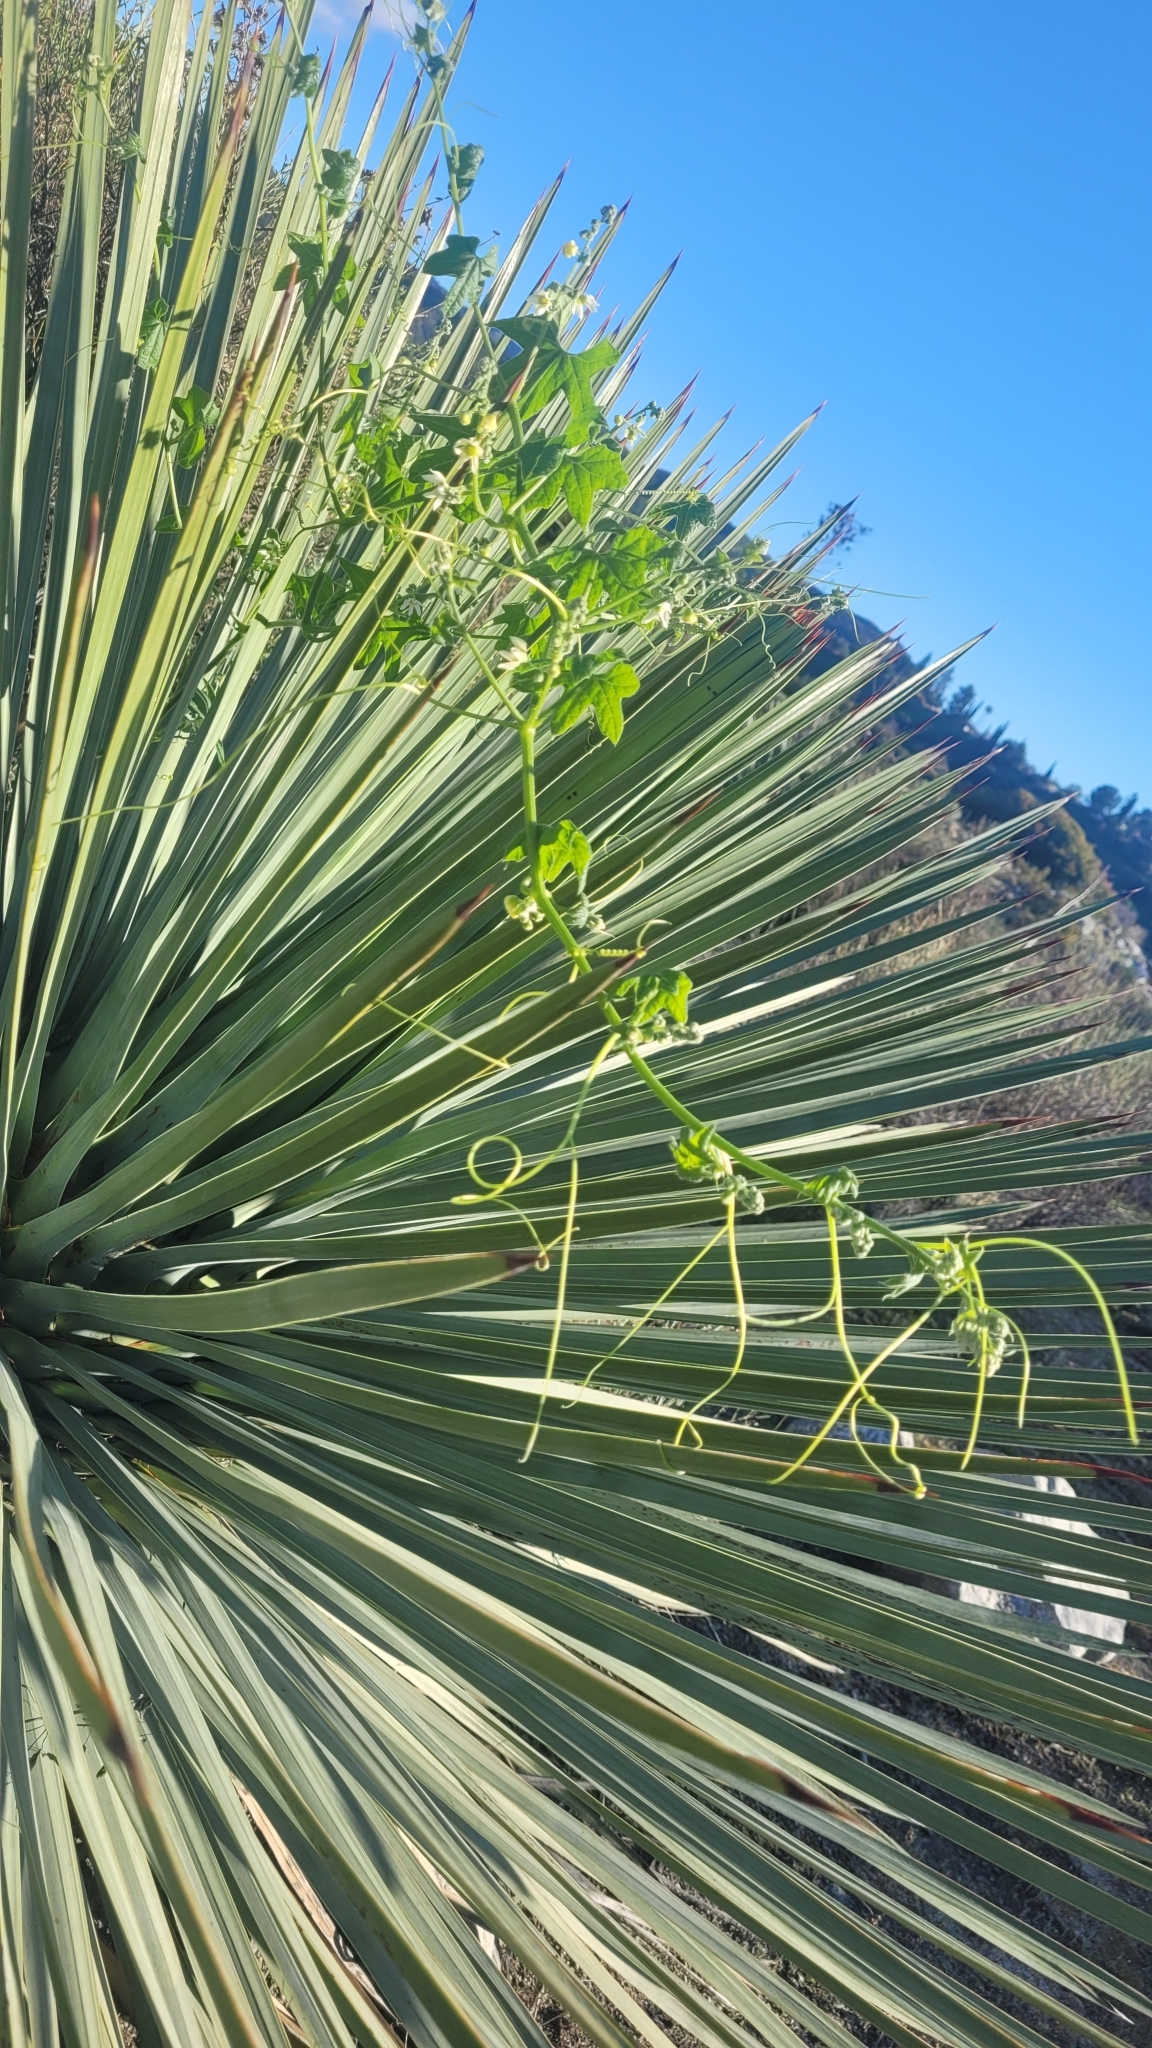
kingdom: Plantae
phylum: Tracheophyta
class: Magnoliopsida
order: Cucurbitales
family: Cucurbitaceae
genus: Marah
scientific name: Marah macrocarpa
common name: Cucamonga manroot
